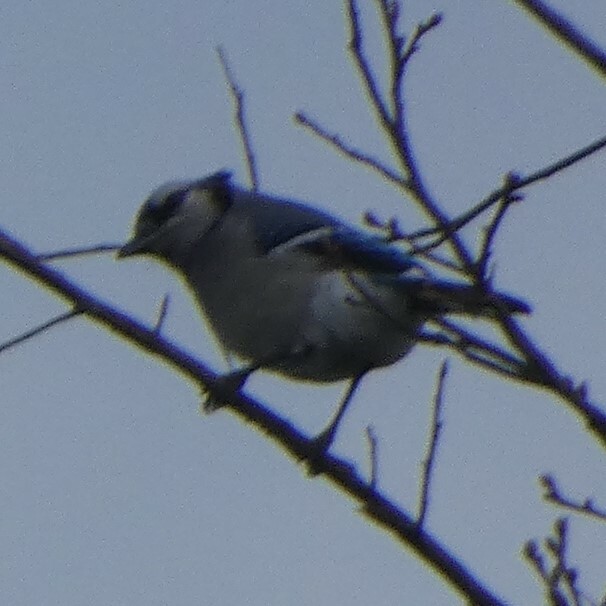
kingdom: Animalia
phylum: Chordata
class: Aves
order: Passeriformes
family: Corvidae
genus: Cyanocitta
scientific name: Cyanocitta cristata
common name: Blue jay
